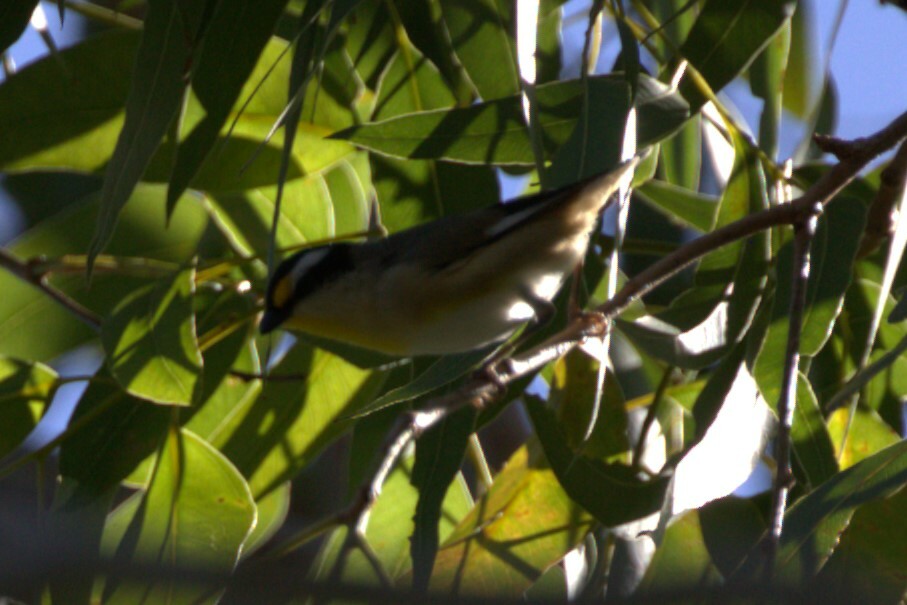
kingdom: Animalia
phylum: Chordata
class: Aves
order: Passeriformes
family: Pardalotidae
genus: Pardalotus
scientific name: Pardalotus striatus
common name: Striated pardalote
